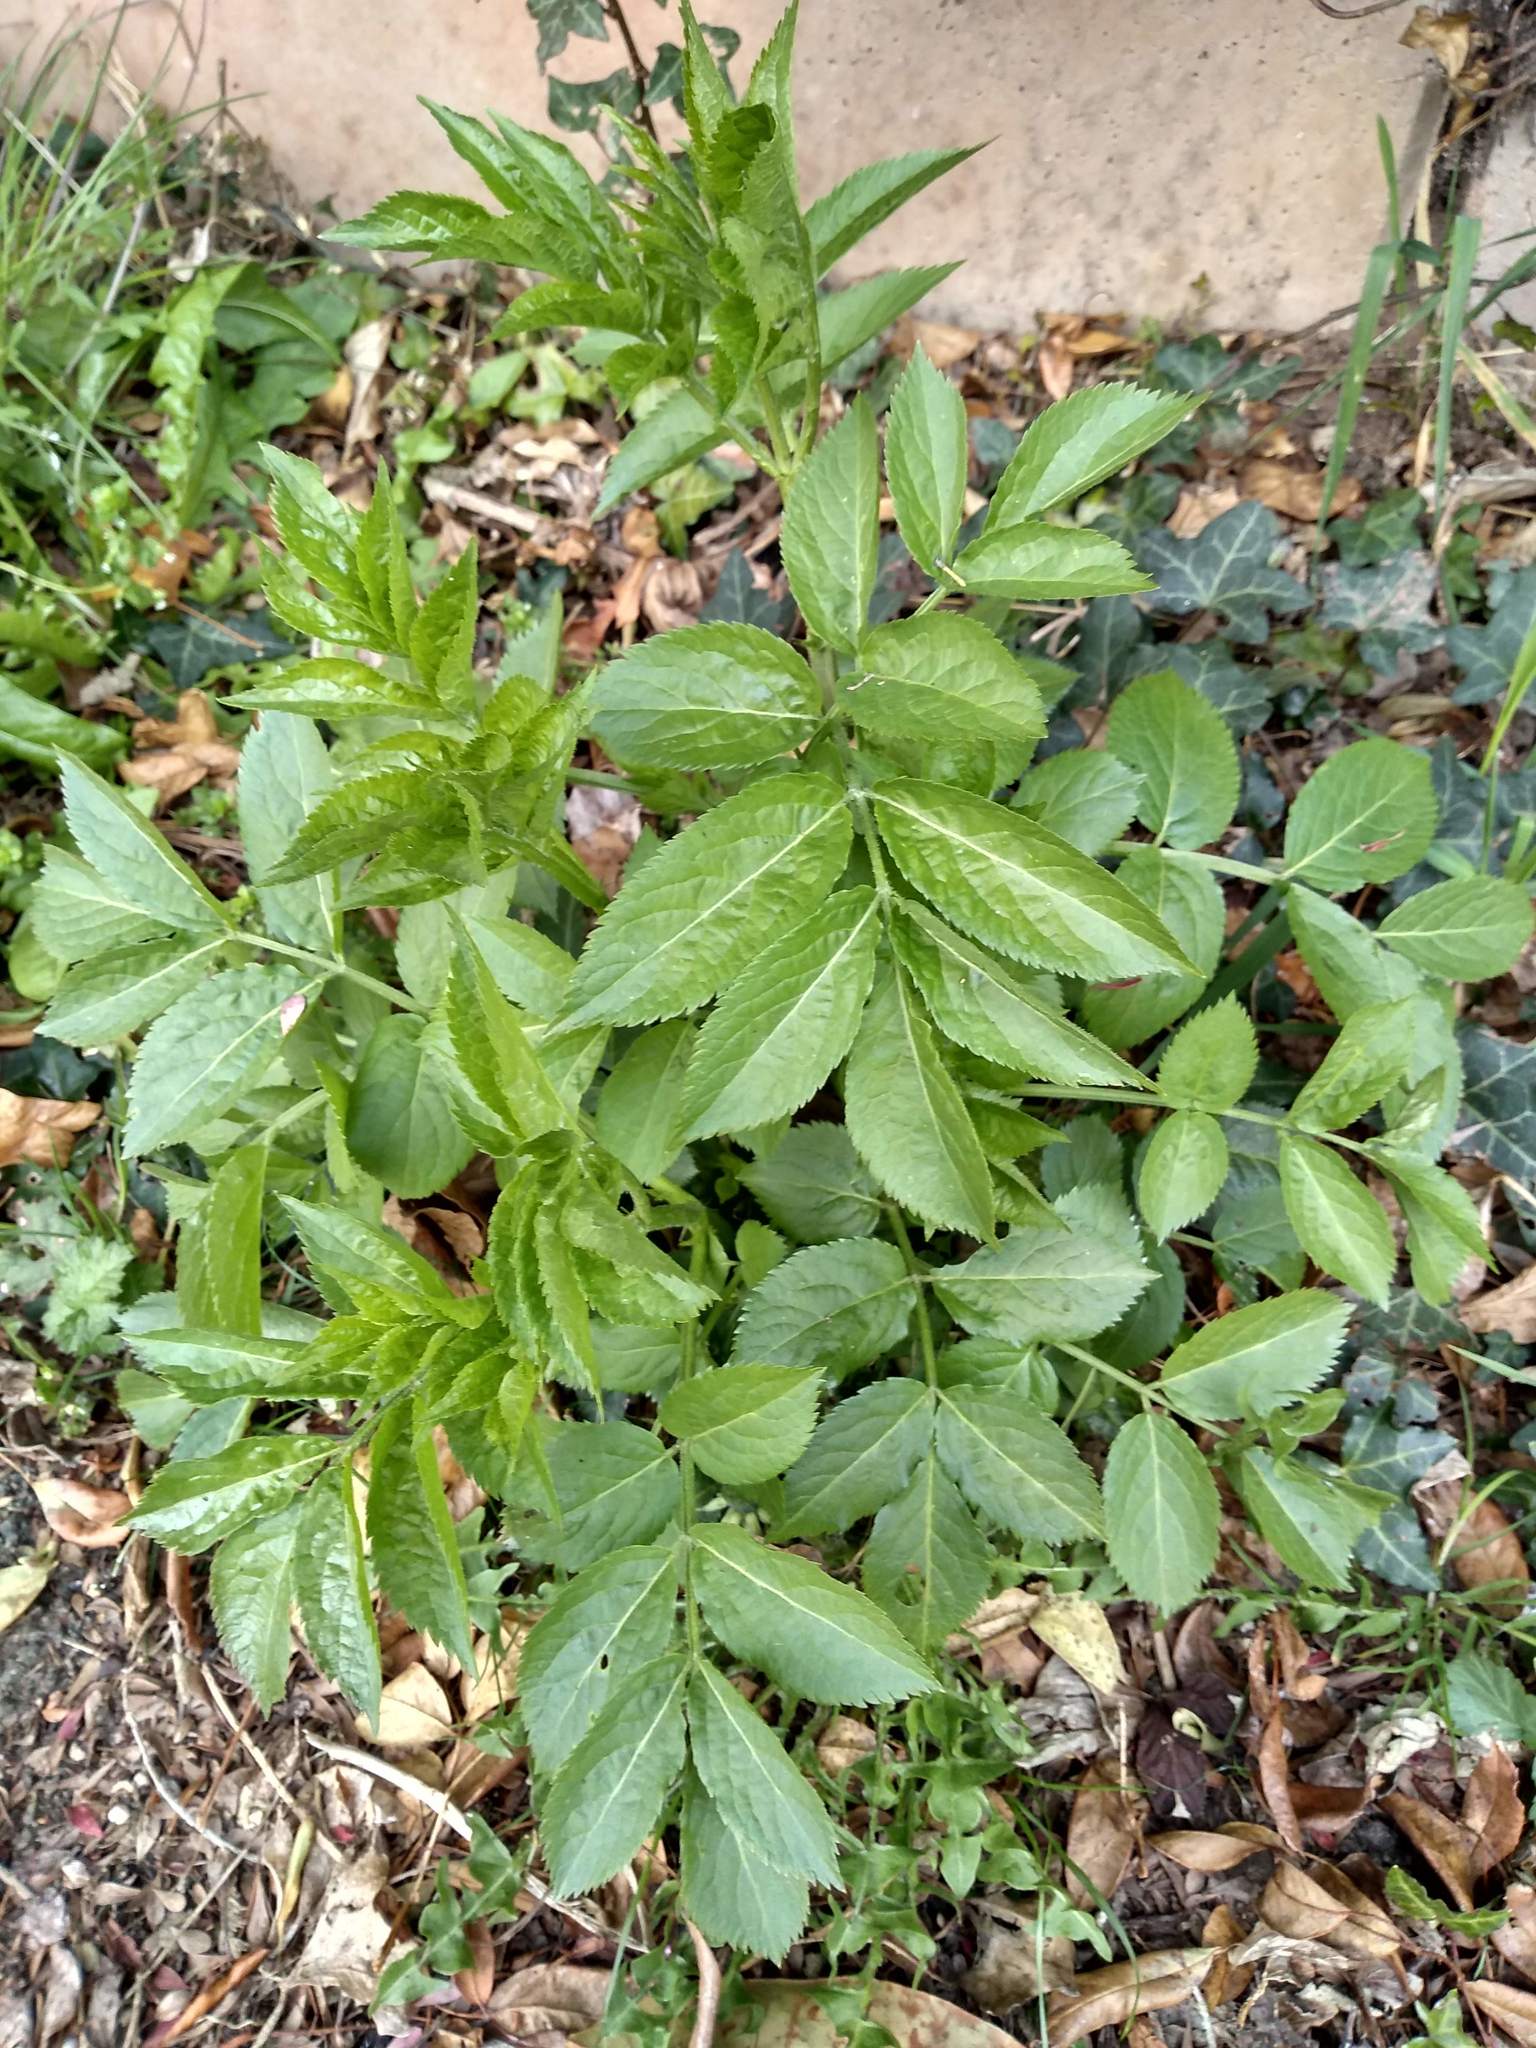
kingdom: Plantae
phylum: Tracheophyta
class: Magnoliopsida
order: Dipsacales
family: Viburnaceae
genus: Sambucus
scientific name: Sambucus nigra
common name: Elder
